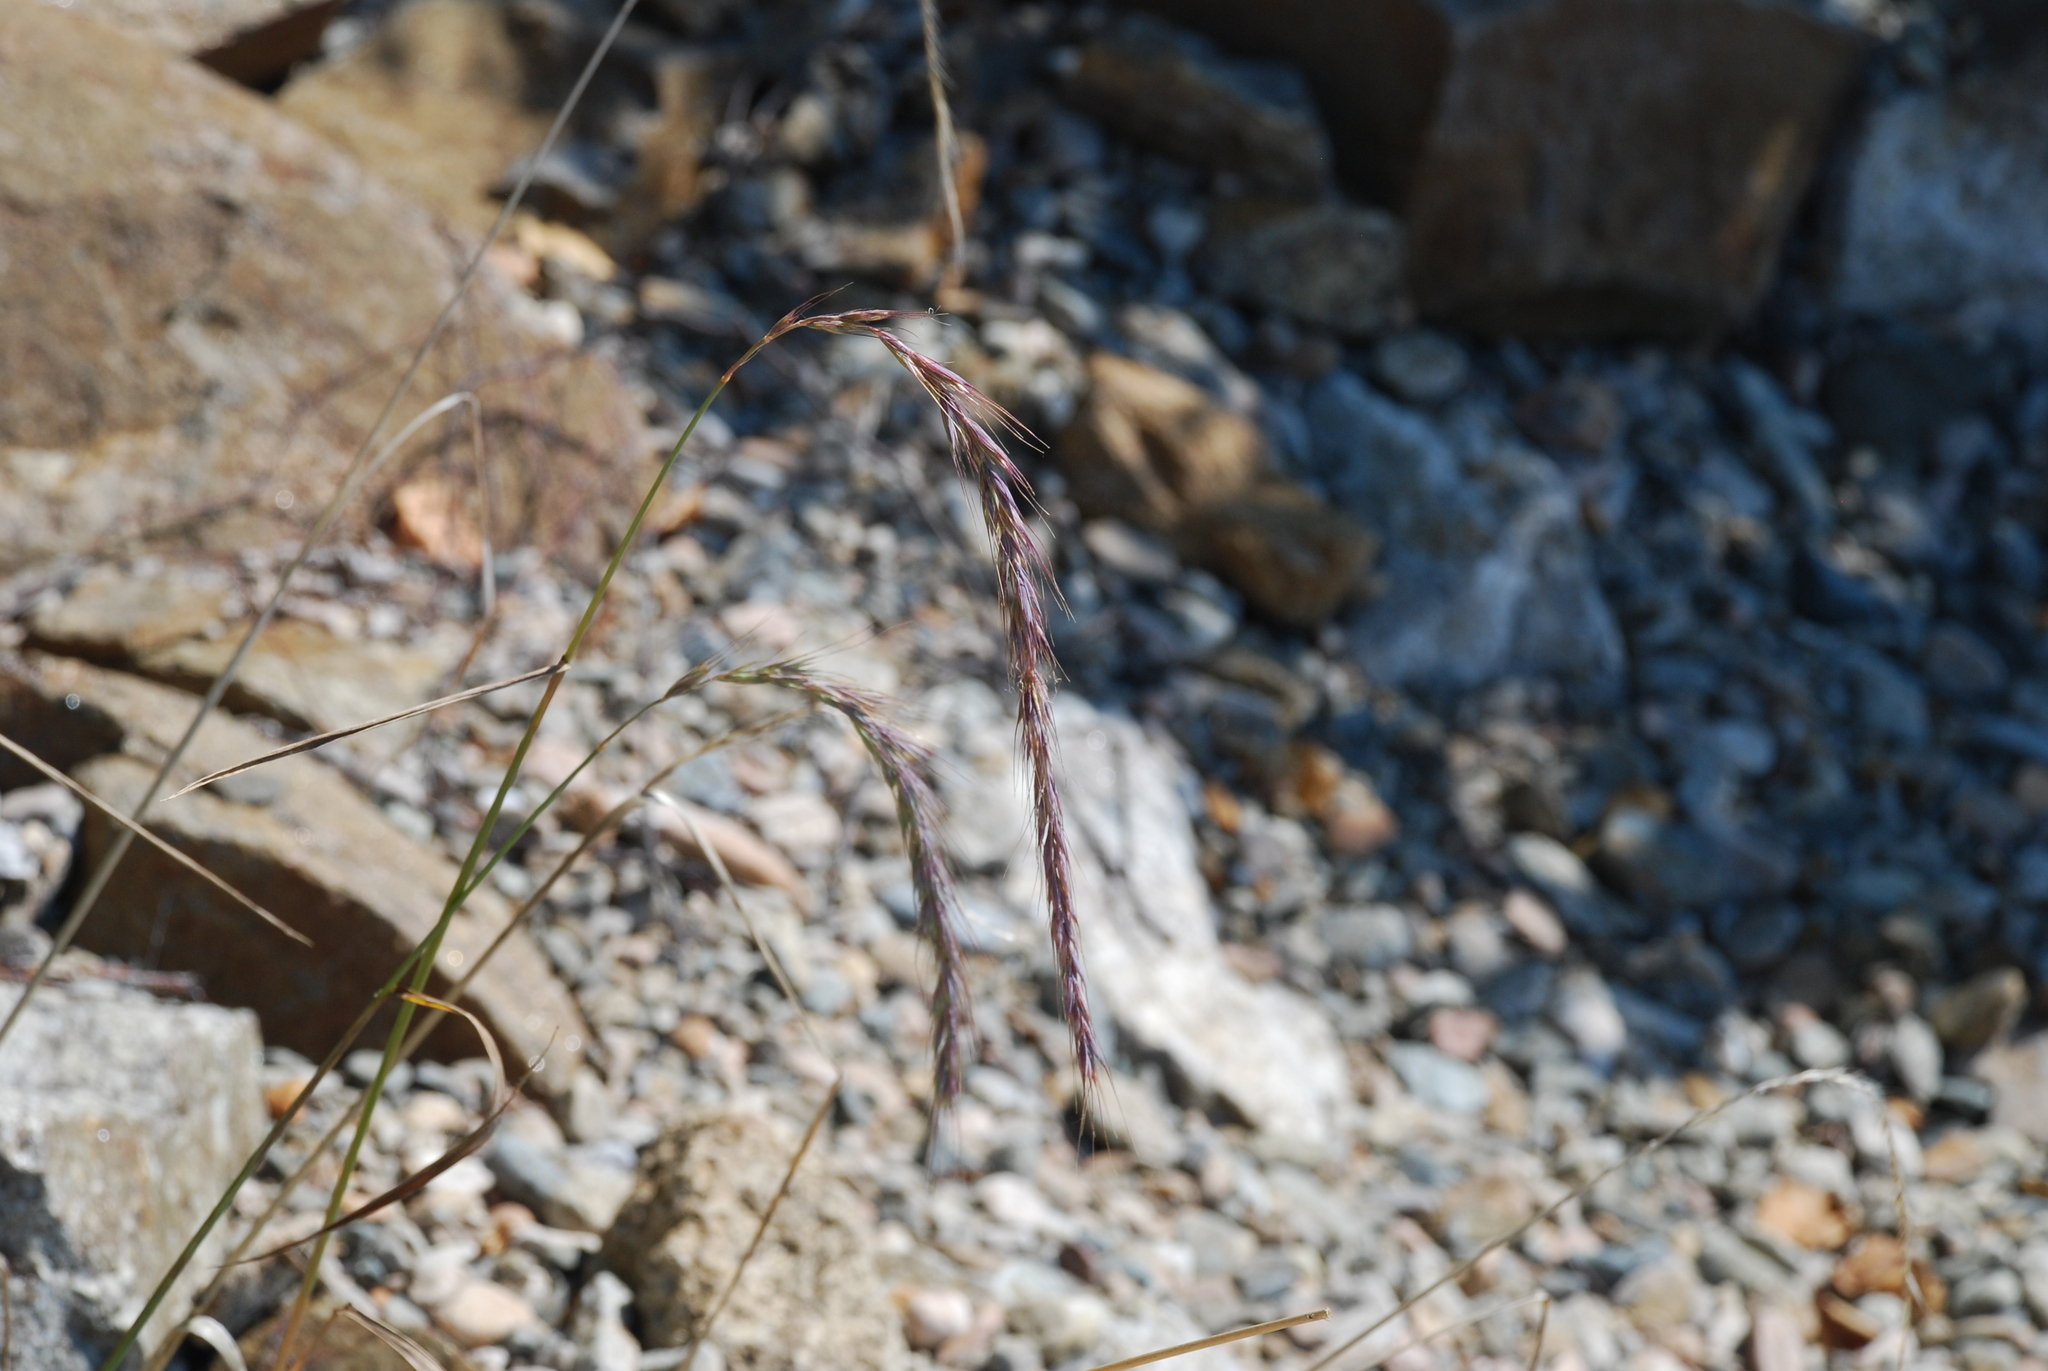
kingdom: Plantae
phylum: Tracheophyta
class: Liliopsida
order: Poales
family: Poaceae
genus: Elymus
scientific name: Elymus sibiricus
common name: Siberian wildrye
